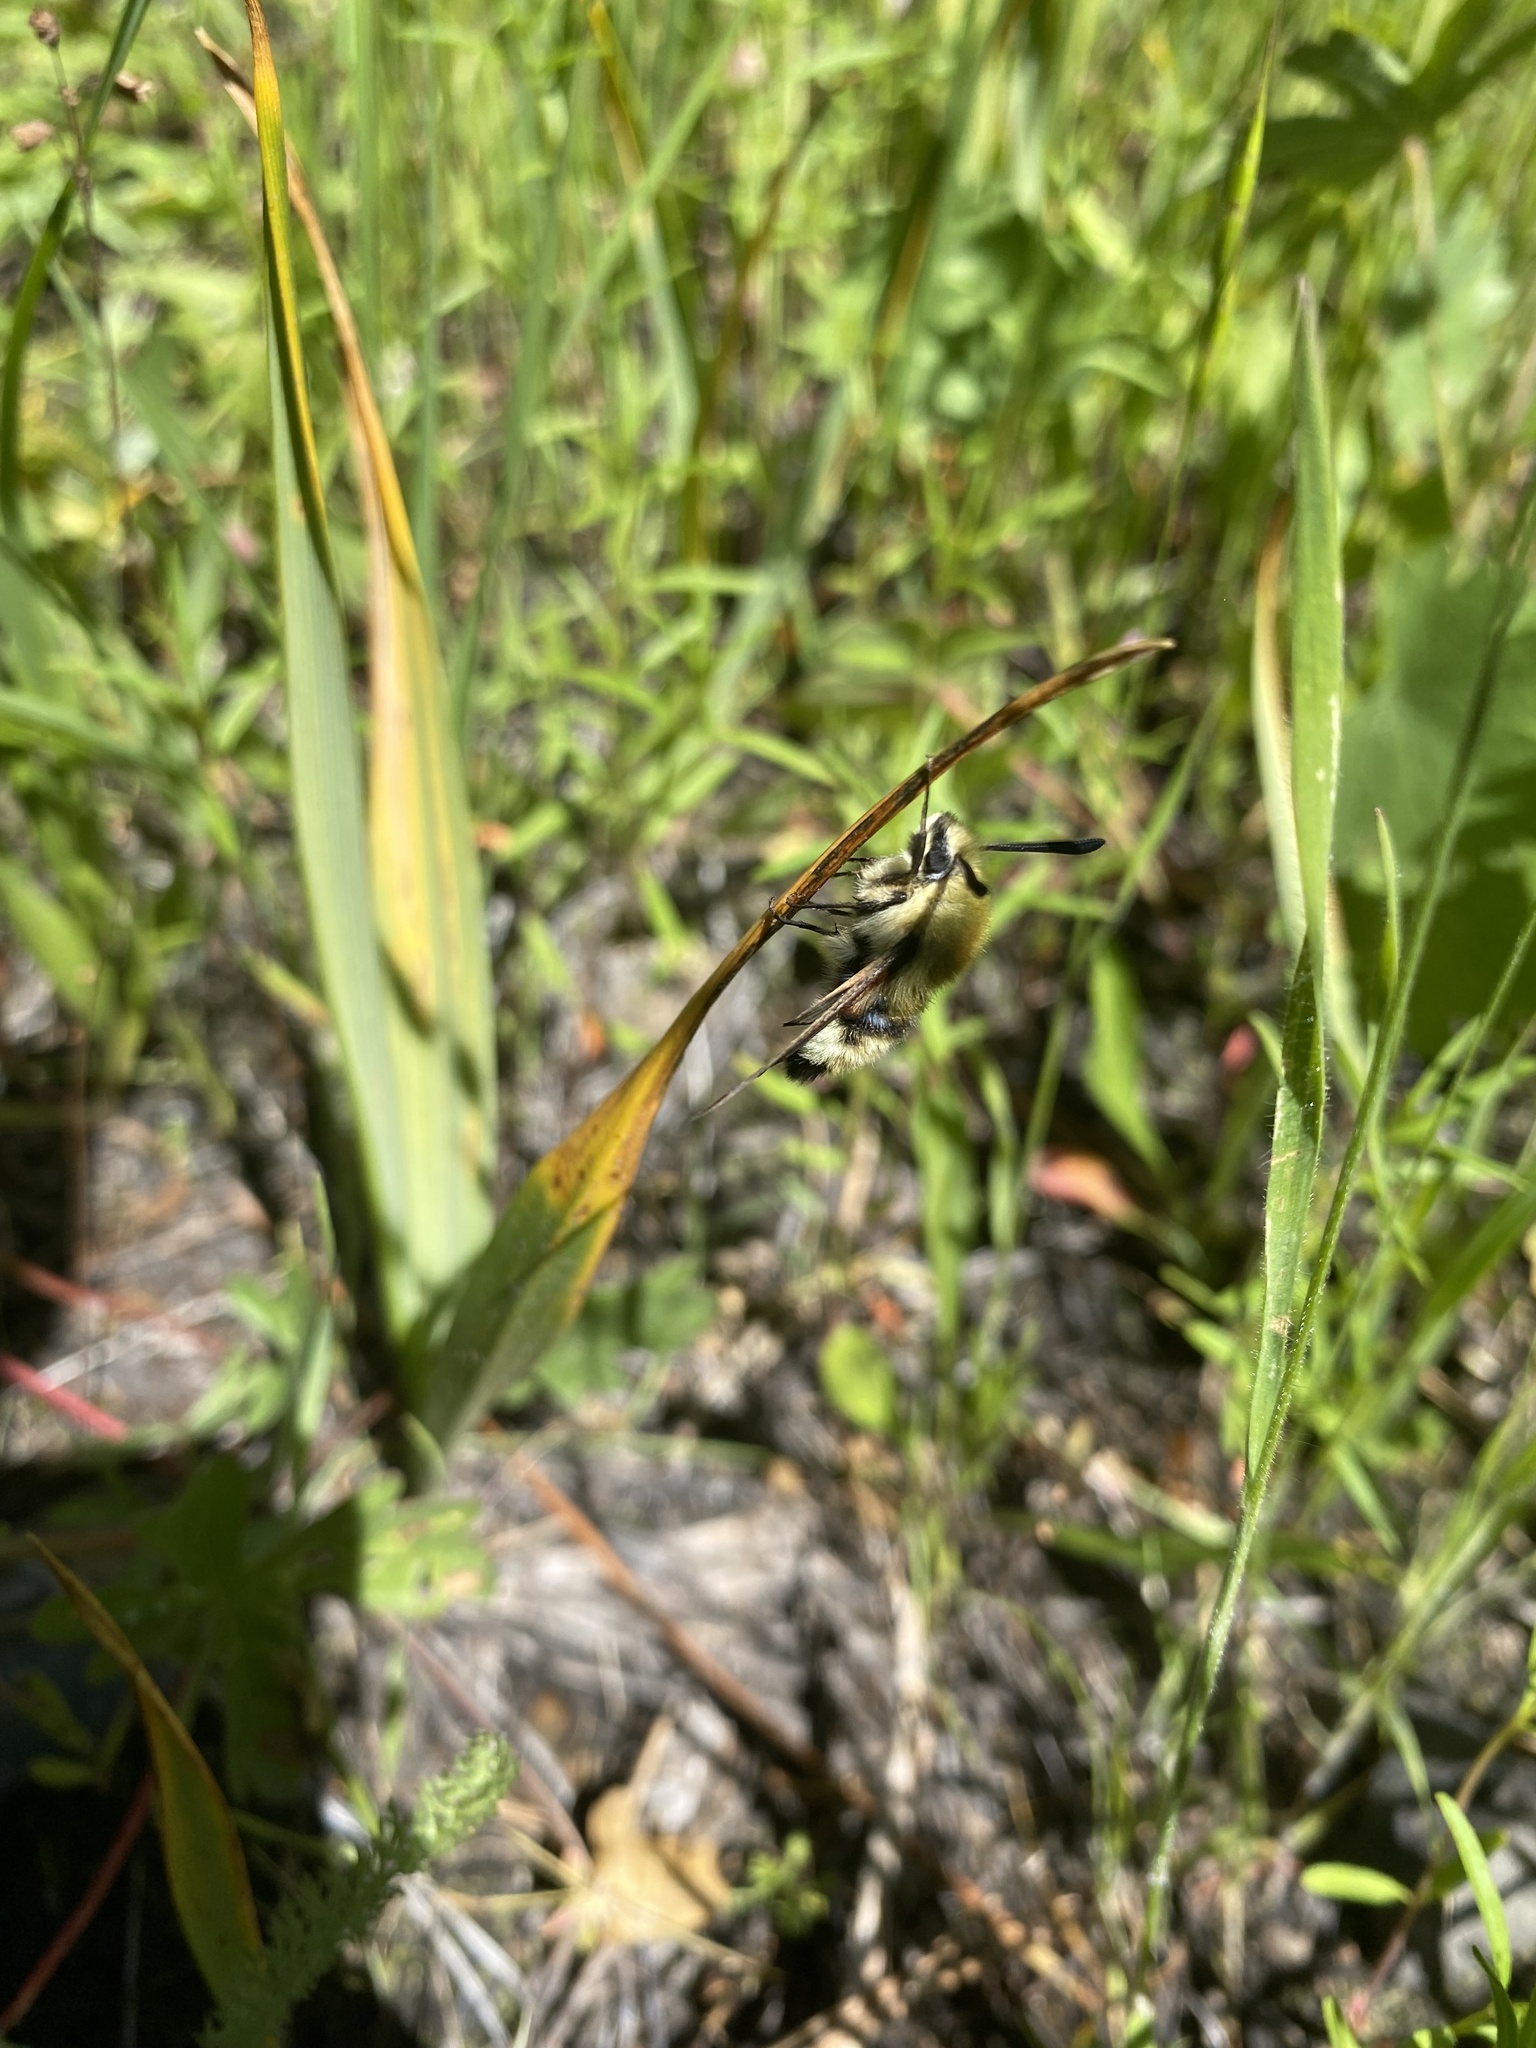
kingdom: Animalia
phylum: Arthropoda
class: Insecta
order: Lepidoptera
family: Sphingidae
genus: Hemaris
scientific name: Hemaris thetis
